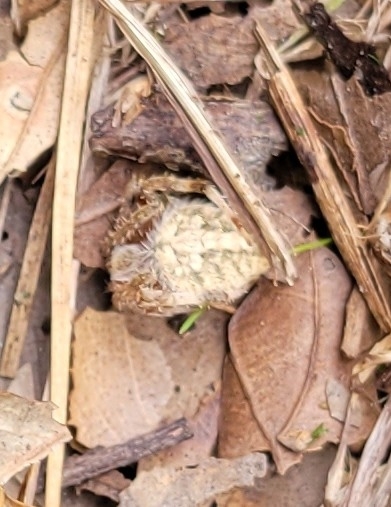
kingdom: Animalia
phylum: Arthropoda
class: Arachnida
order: Araneae
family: Araneidae
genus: Neoscona
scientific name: Neoscona crucifera
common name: Spotted orbweaver
